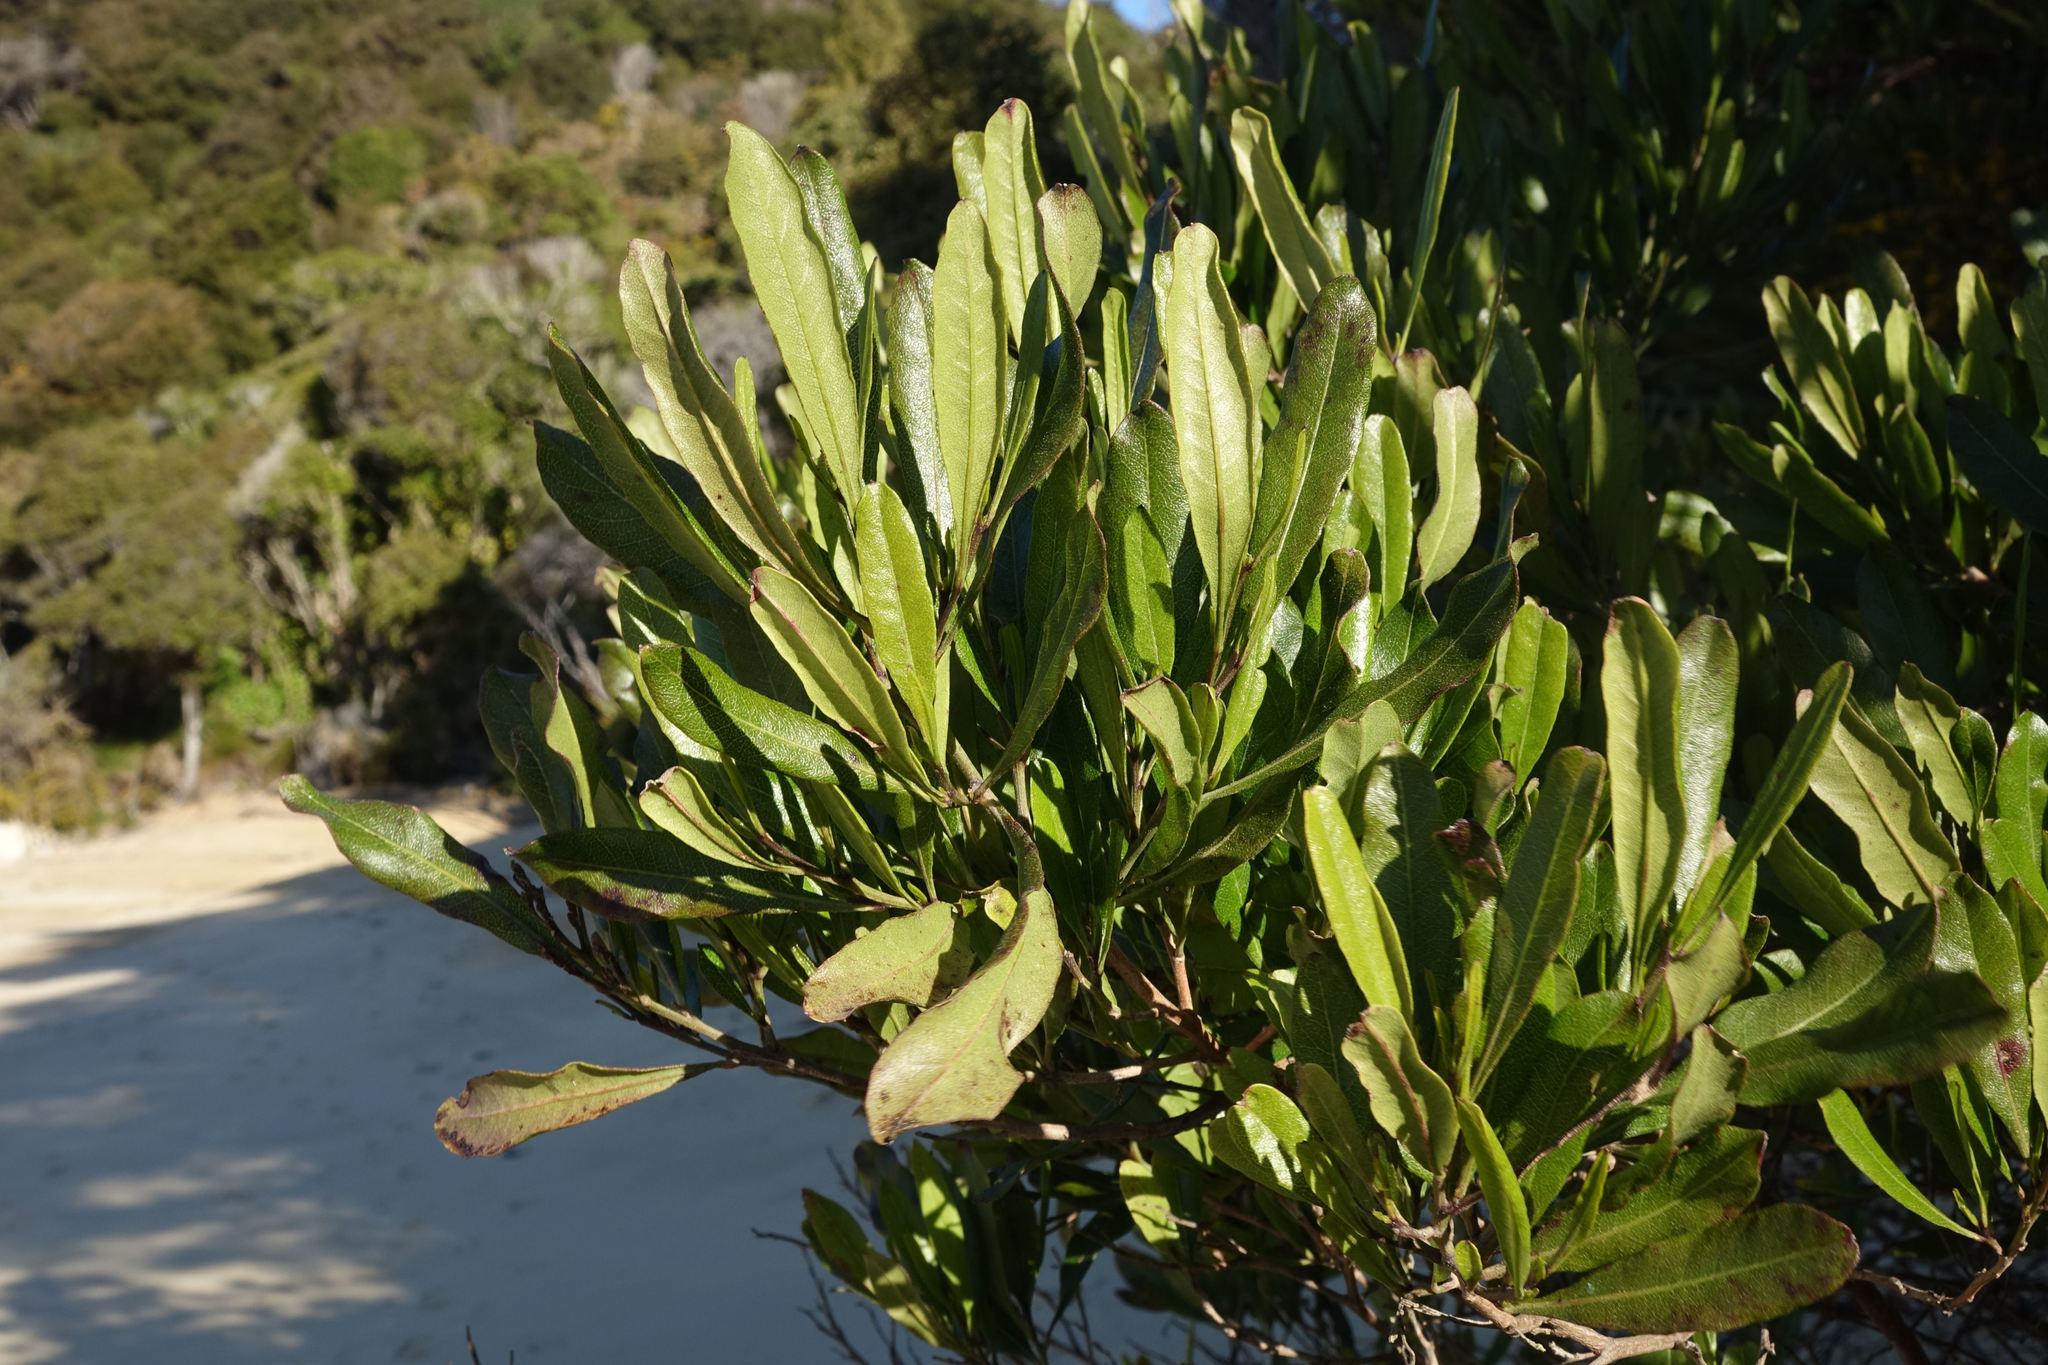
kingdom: Plantae
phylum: Tracheophyta
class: Magnoliopsida
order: Sapindales
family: Sapindaceae
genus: Dodonaea
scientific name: Dodonaea viscosa
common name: Hopbush
